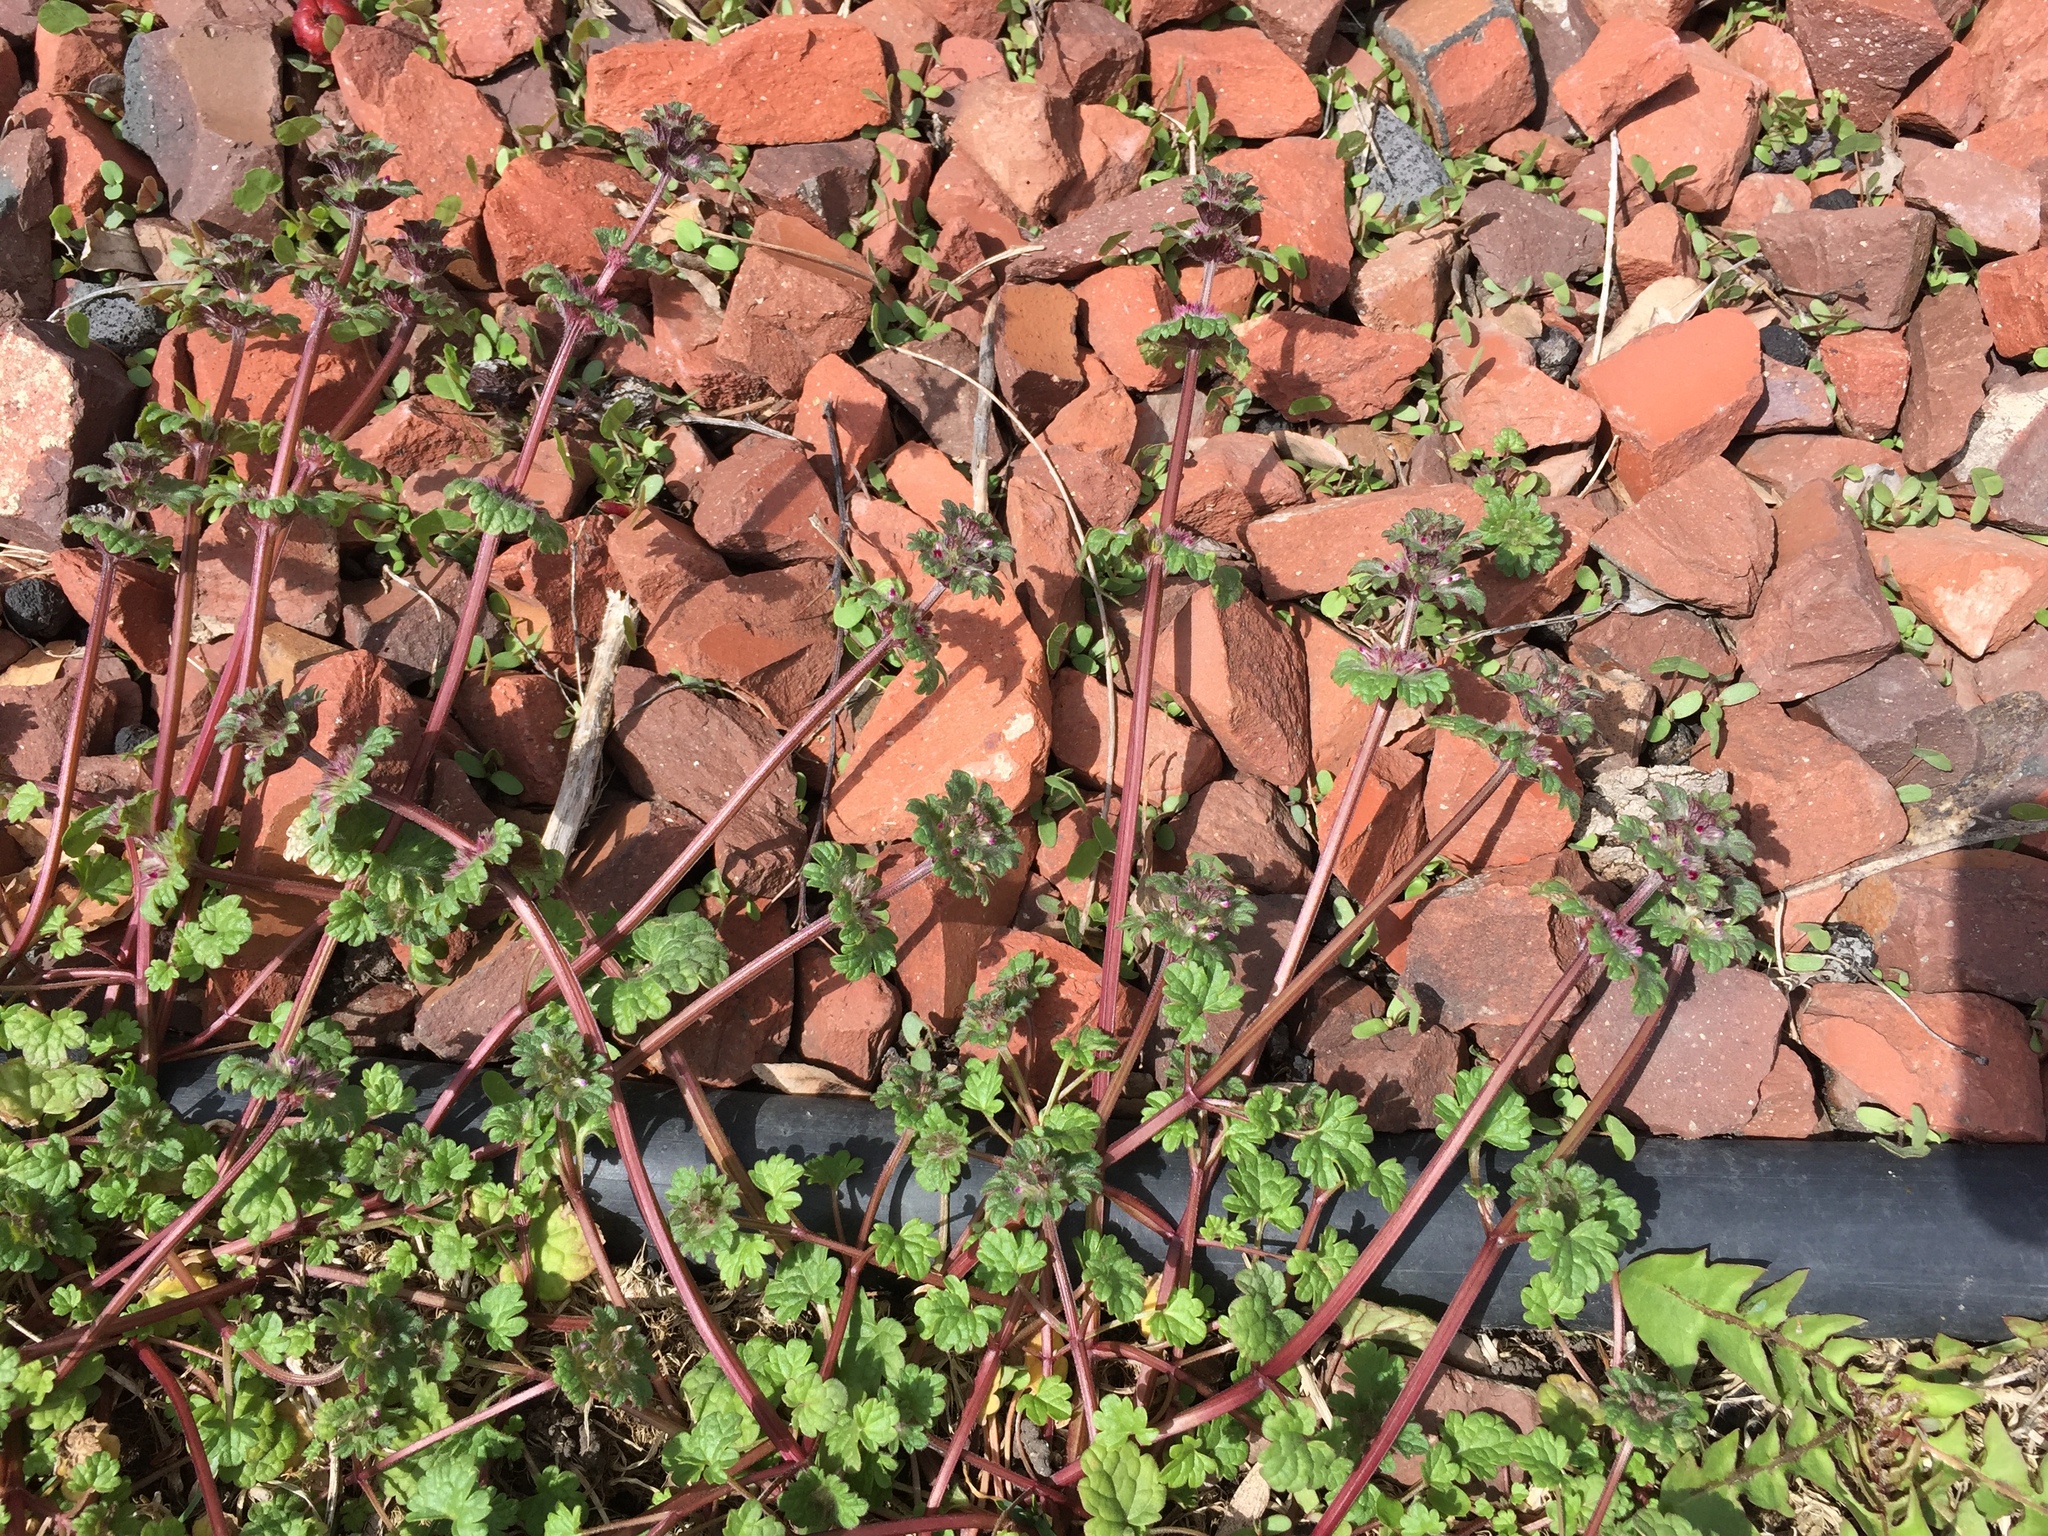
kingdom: Plantae
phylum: Tracheophyta
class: Magnoliopsida
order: Lamiales
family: Lamiaceae
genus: Lamium
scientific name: Lamium amplexicaule
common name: Henbit dead-nettle
